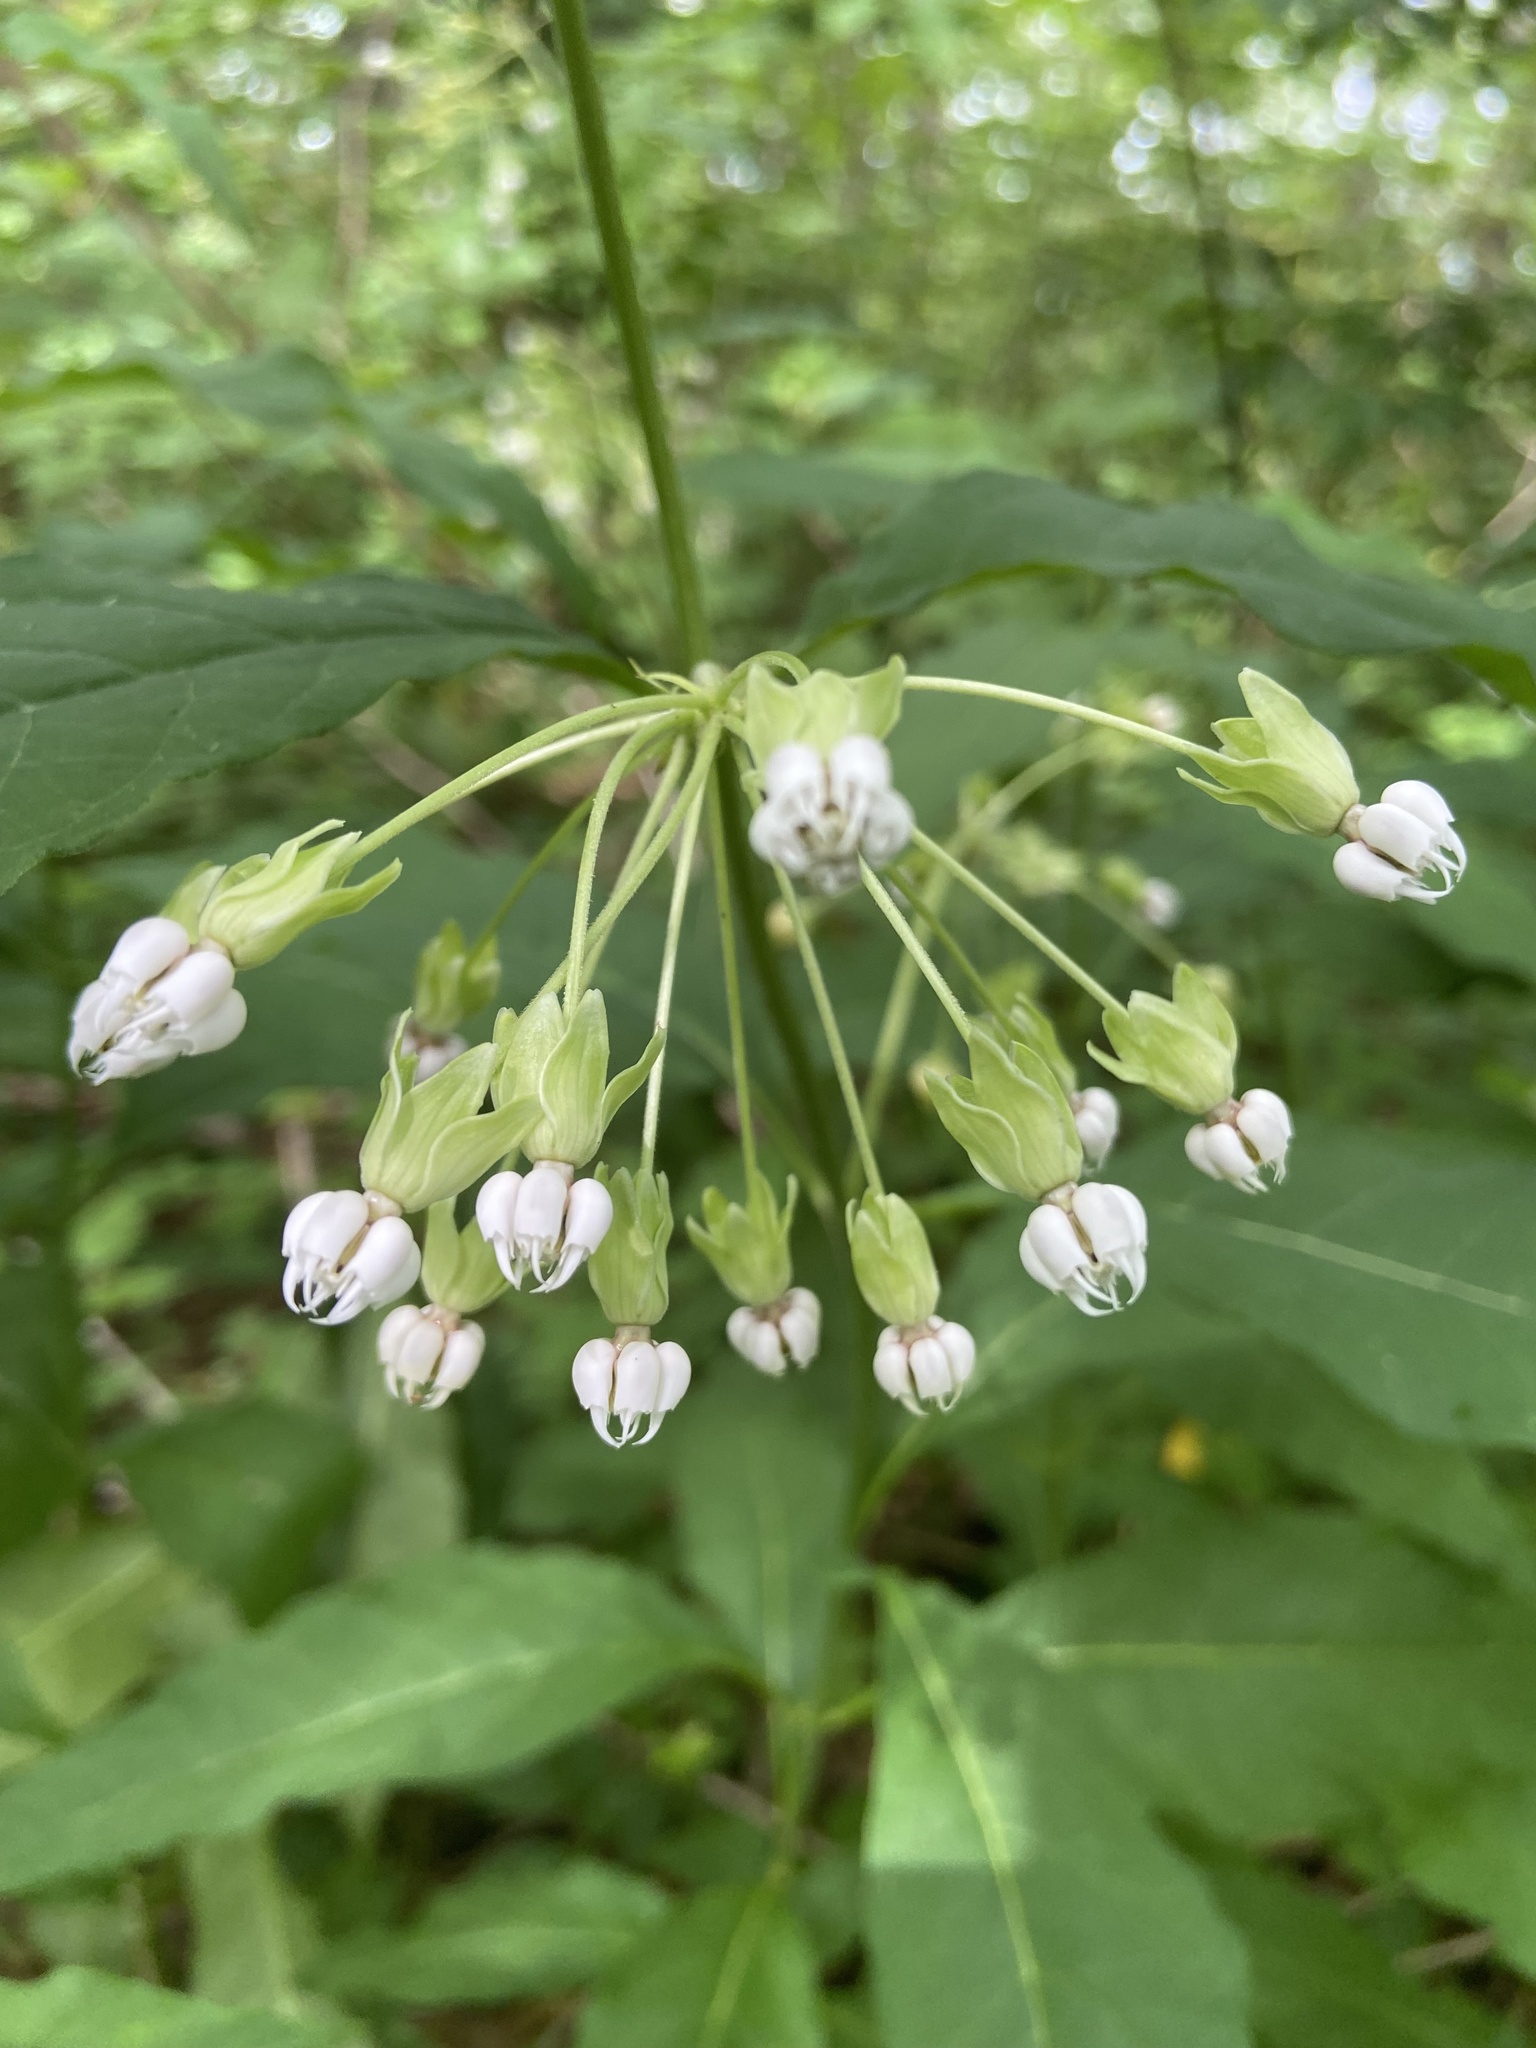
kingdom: Plantae
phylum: Tracheophyta
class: Magnoliopsida
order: Gentianales
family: Apocynaceae
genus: Asclepias
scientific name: Asclepias exaltata
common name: Poke milkweed
